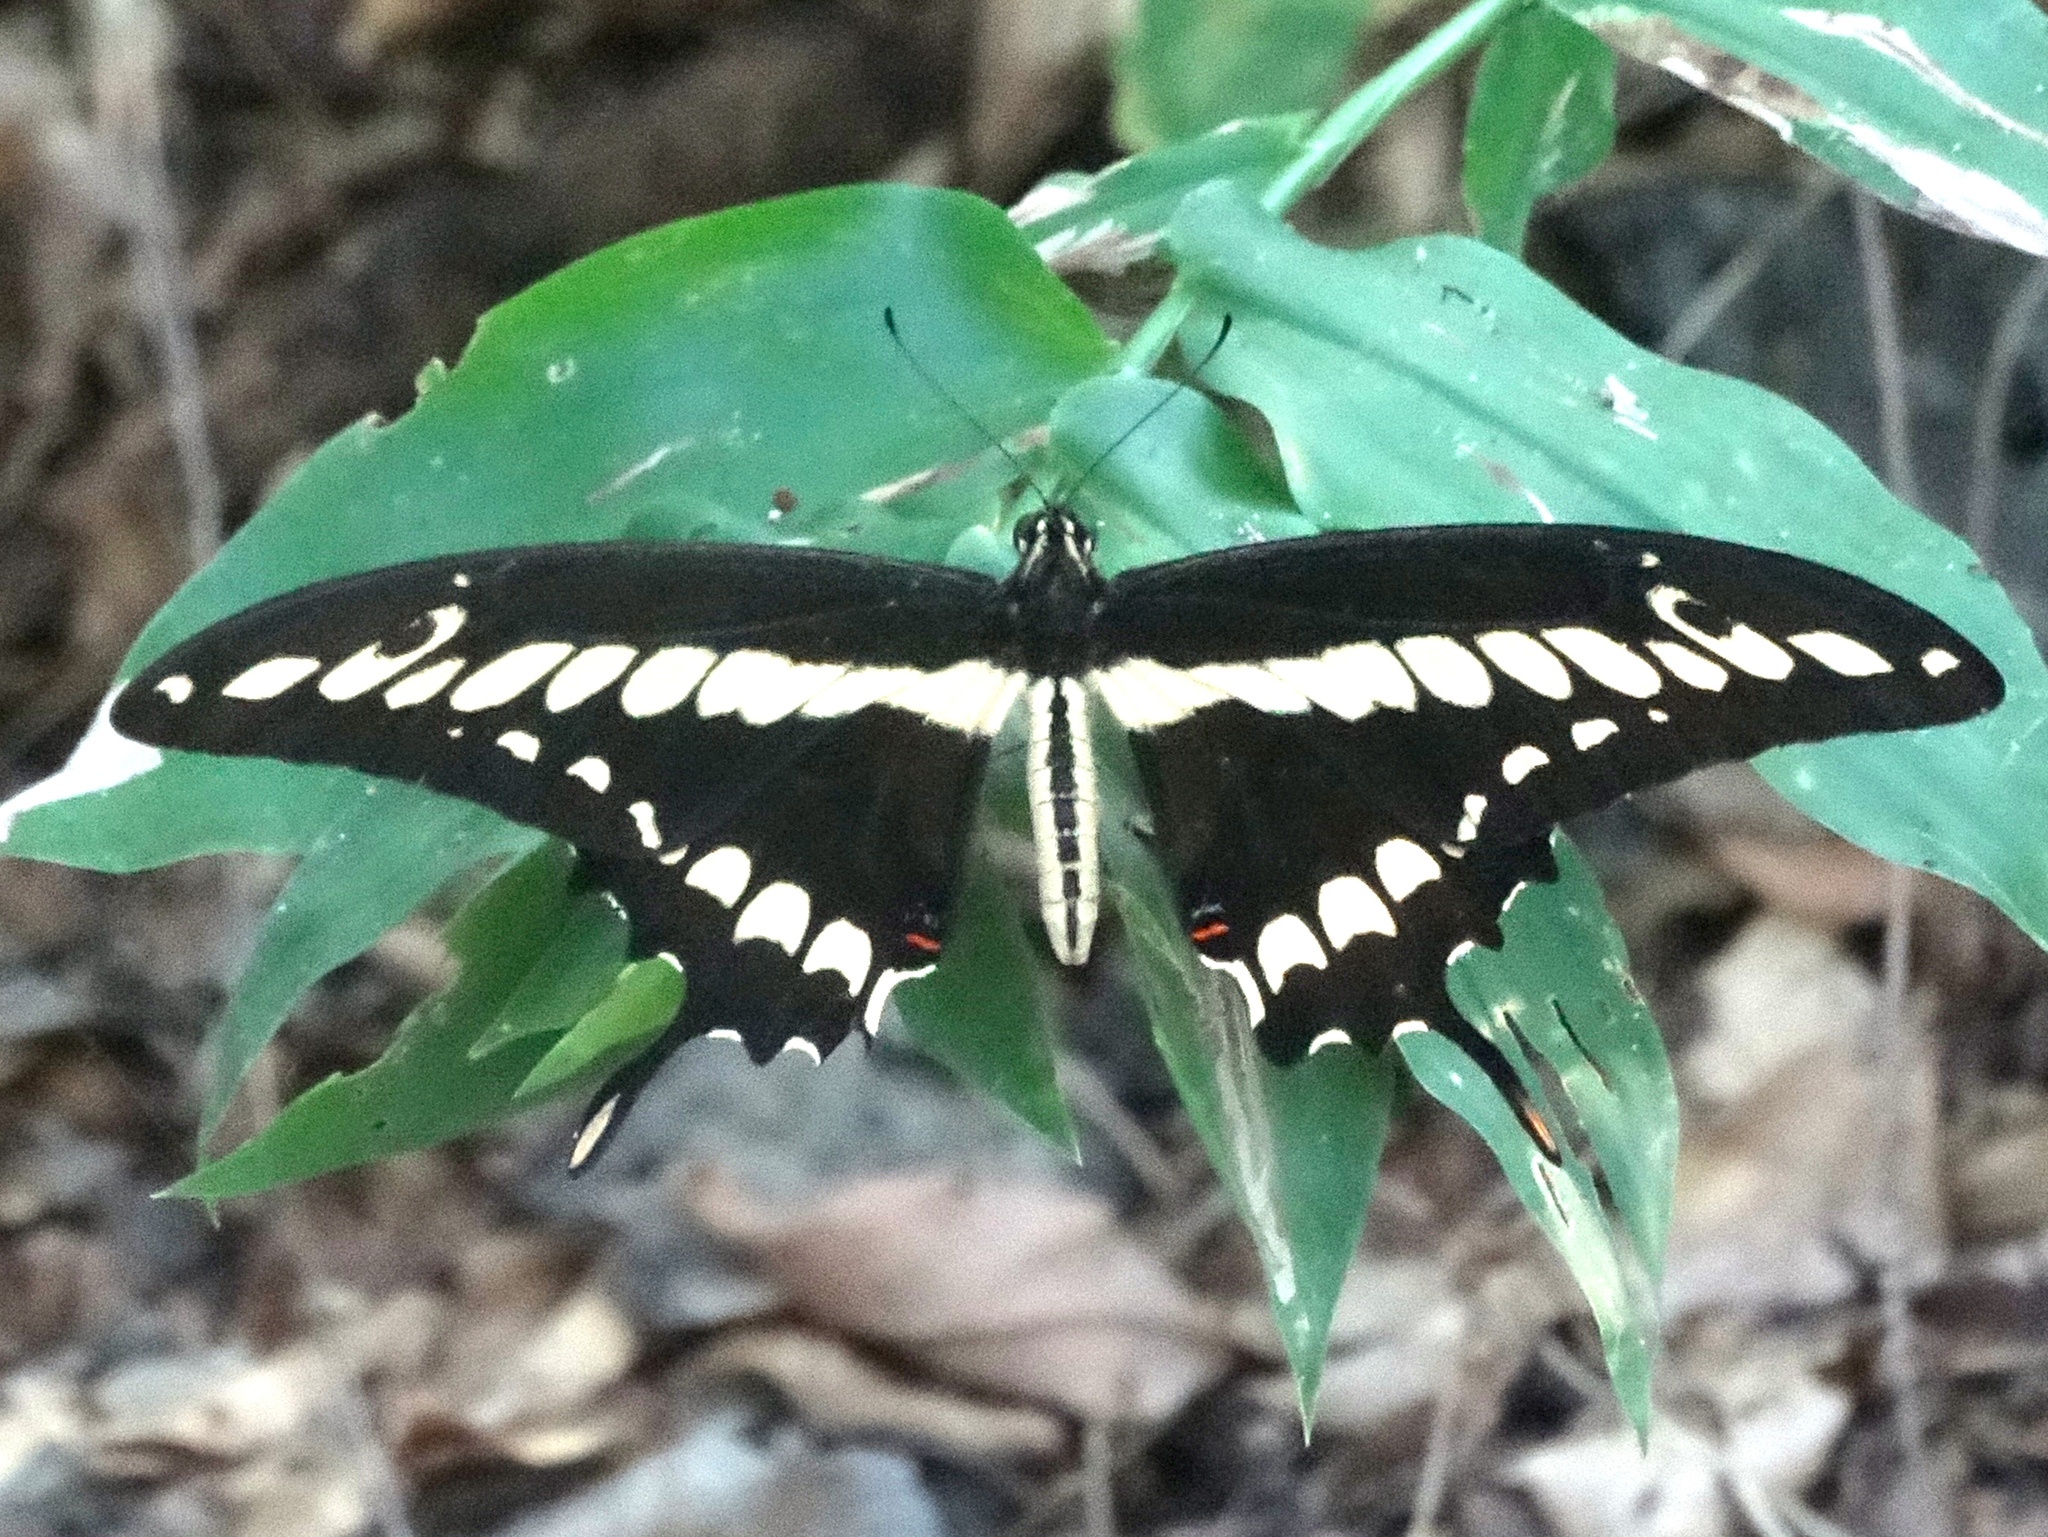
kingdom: Animalia
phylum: Arthropoda
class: Insecta
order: Lepidoptera
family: Papilionidae
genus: Papilio
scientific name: Papilio thoas
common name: King swallowtail
